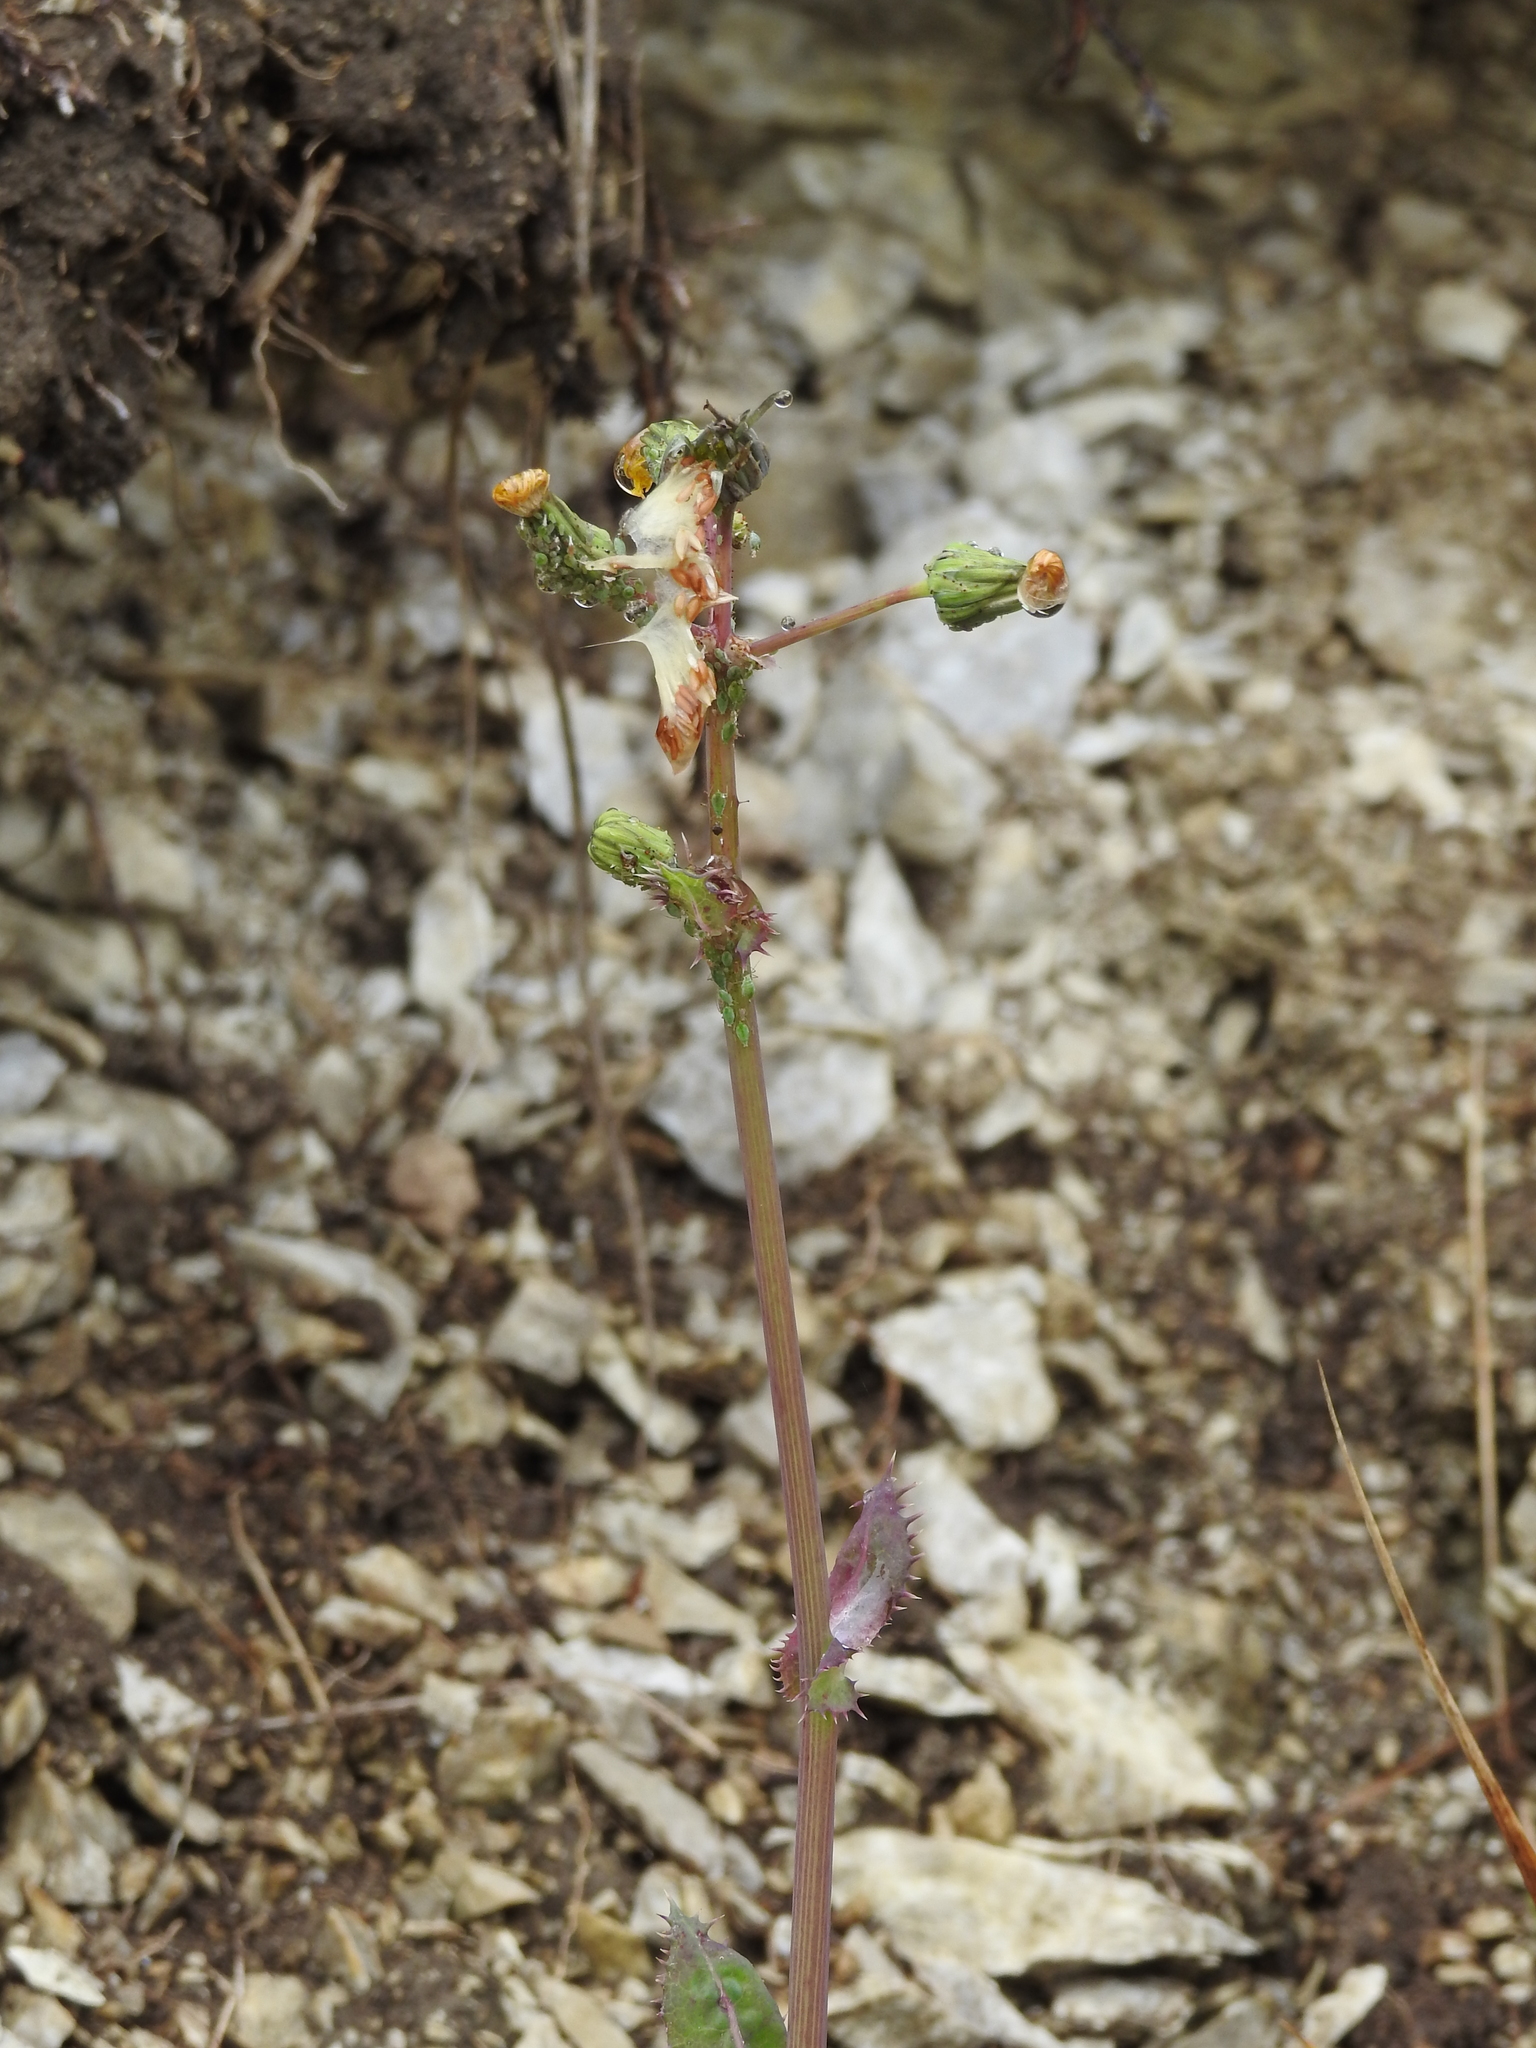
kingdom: Plantae
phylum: Tracheophyta
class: Magnoliopsida
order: Asterales
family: Asteraceae
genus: Sonchus
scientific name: Sonchus asper
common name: Prickly sow-thistle
